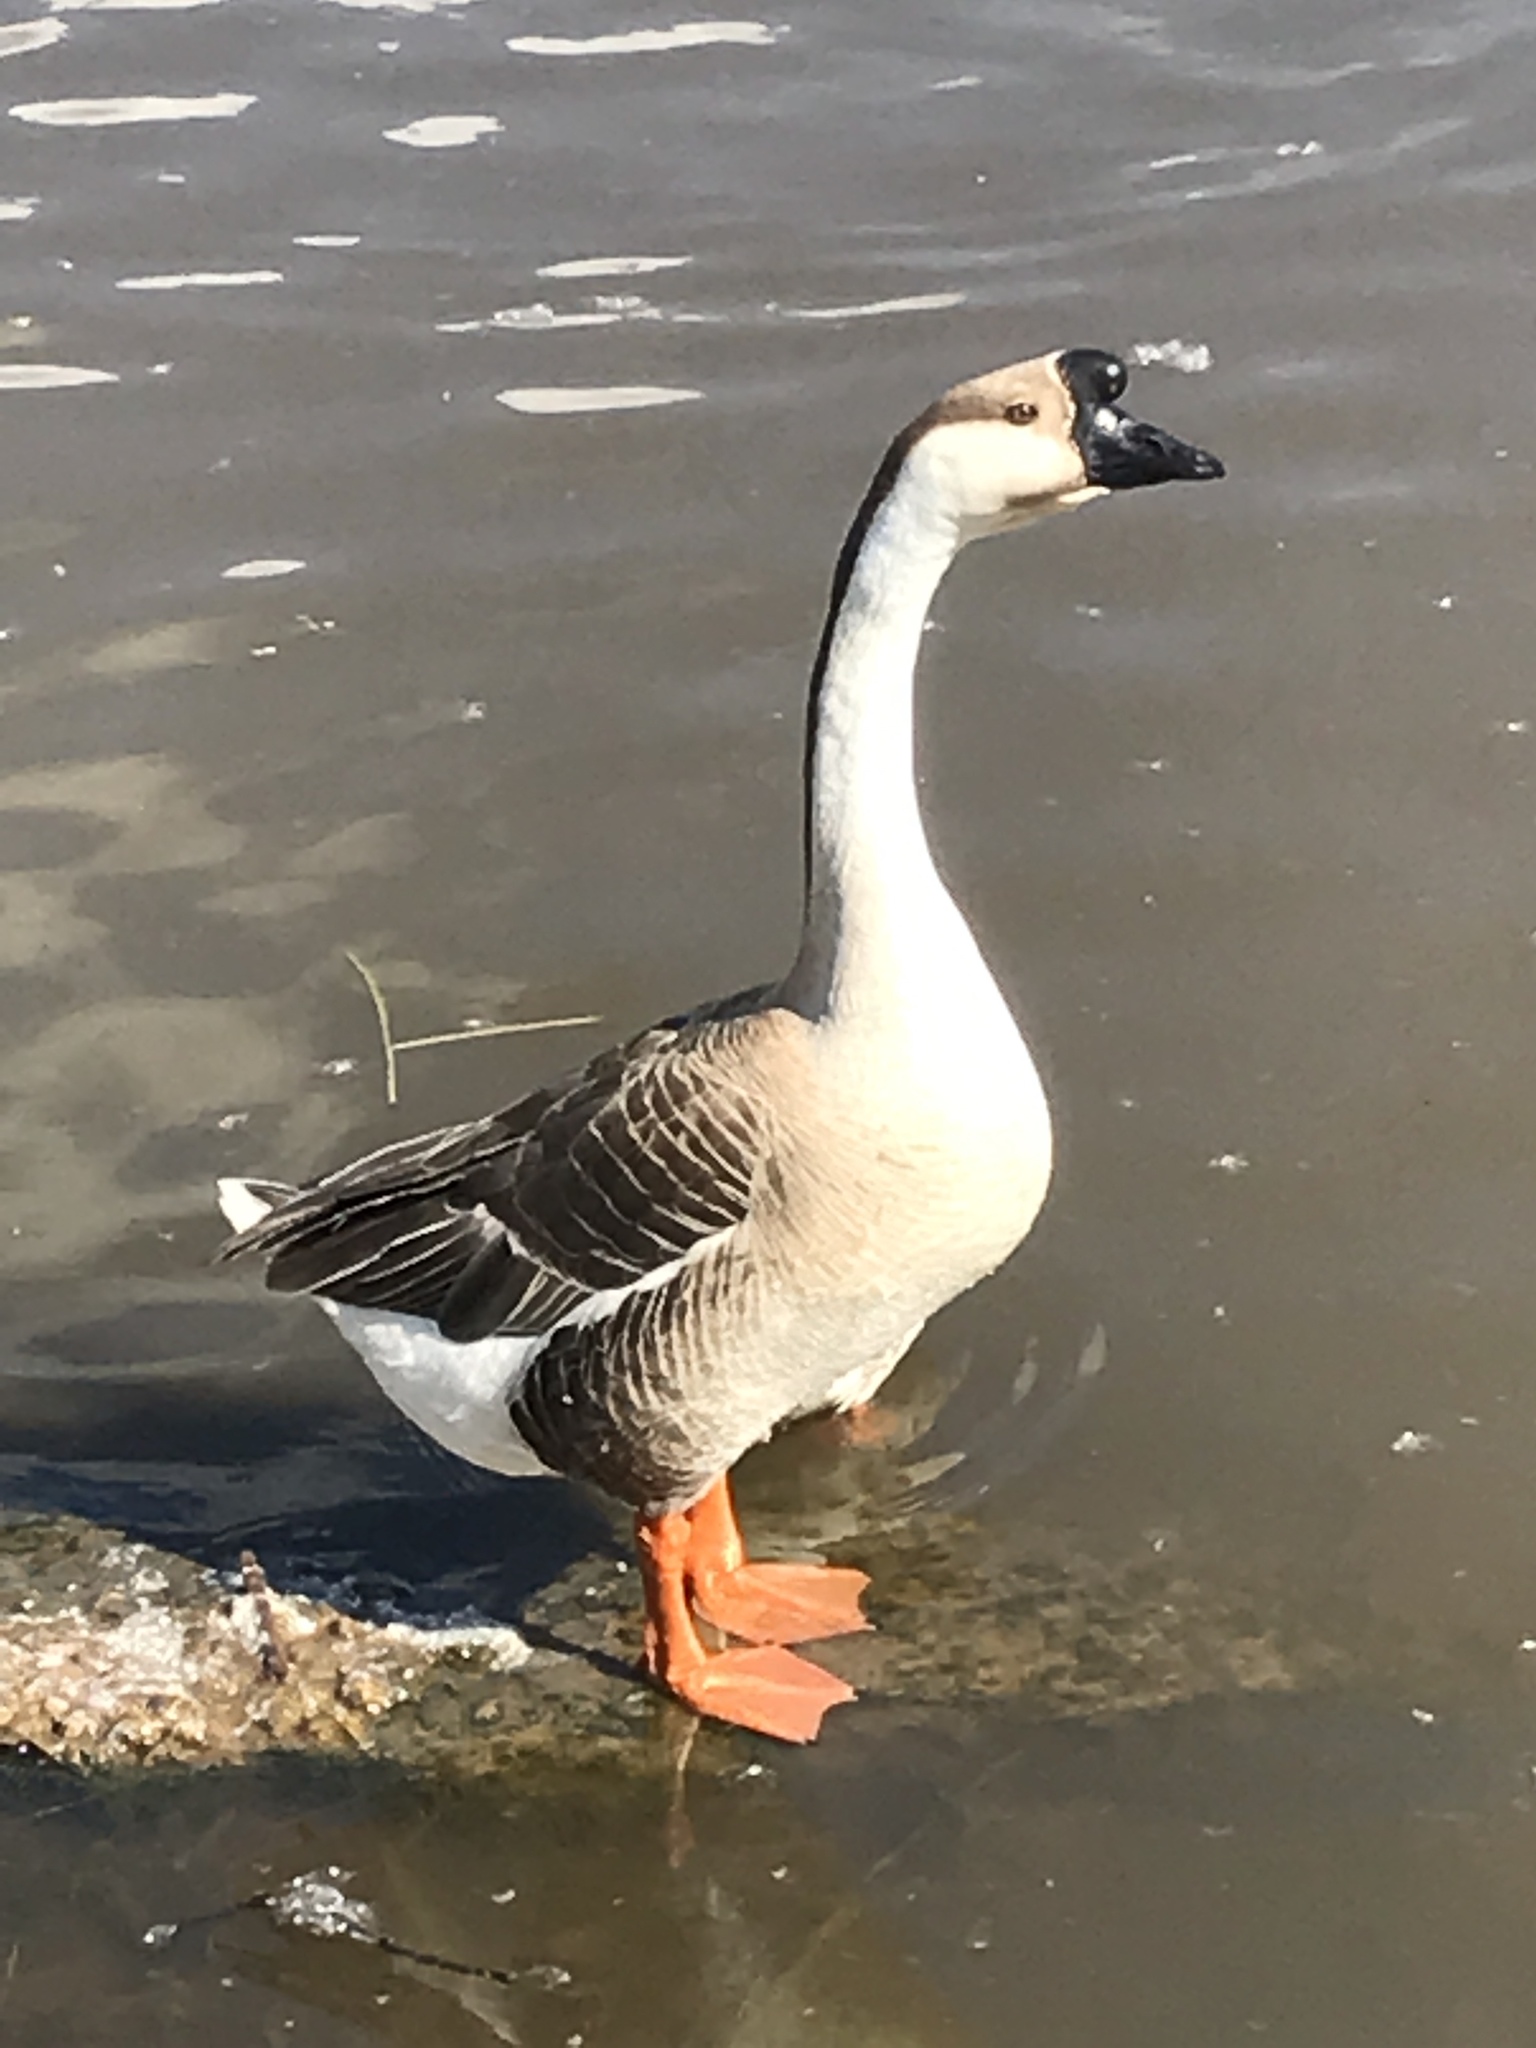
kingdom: Animalia
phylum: Chordata
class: Aves
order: Anseriformes
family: Anatidae
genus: Anser
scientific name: Anser cygnoides
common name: Swan goose
